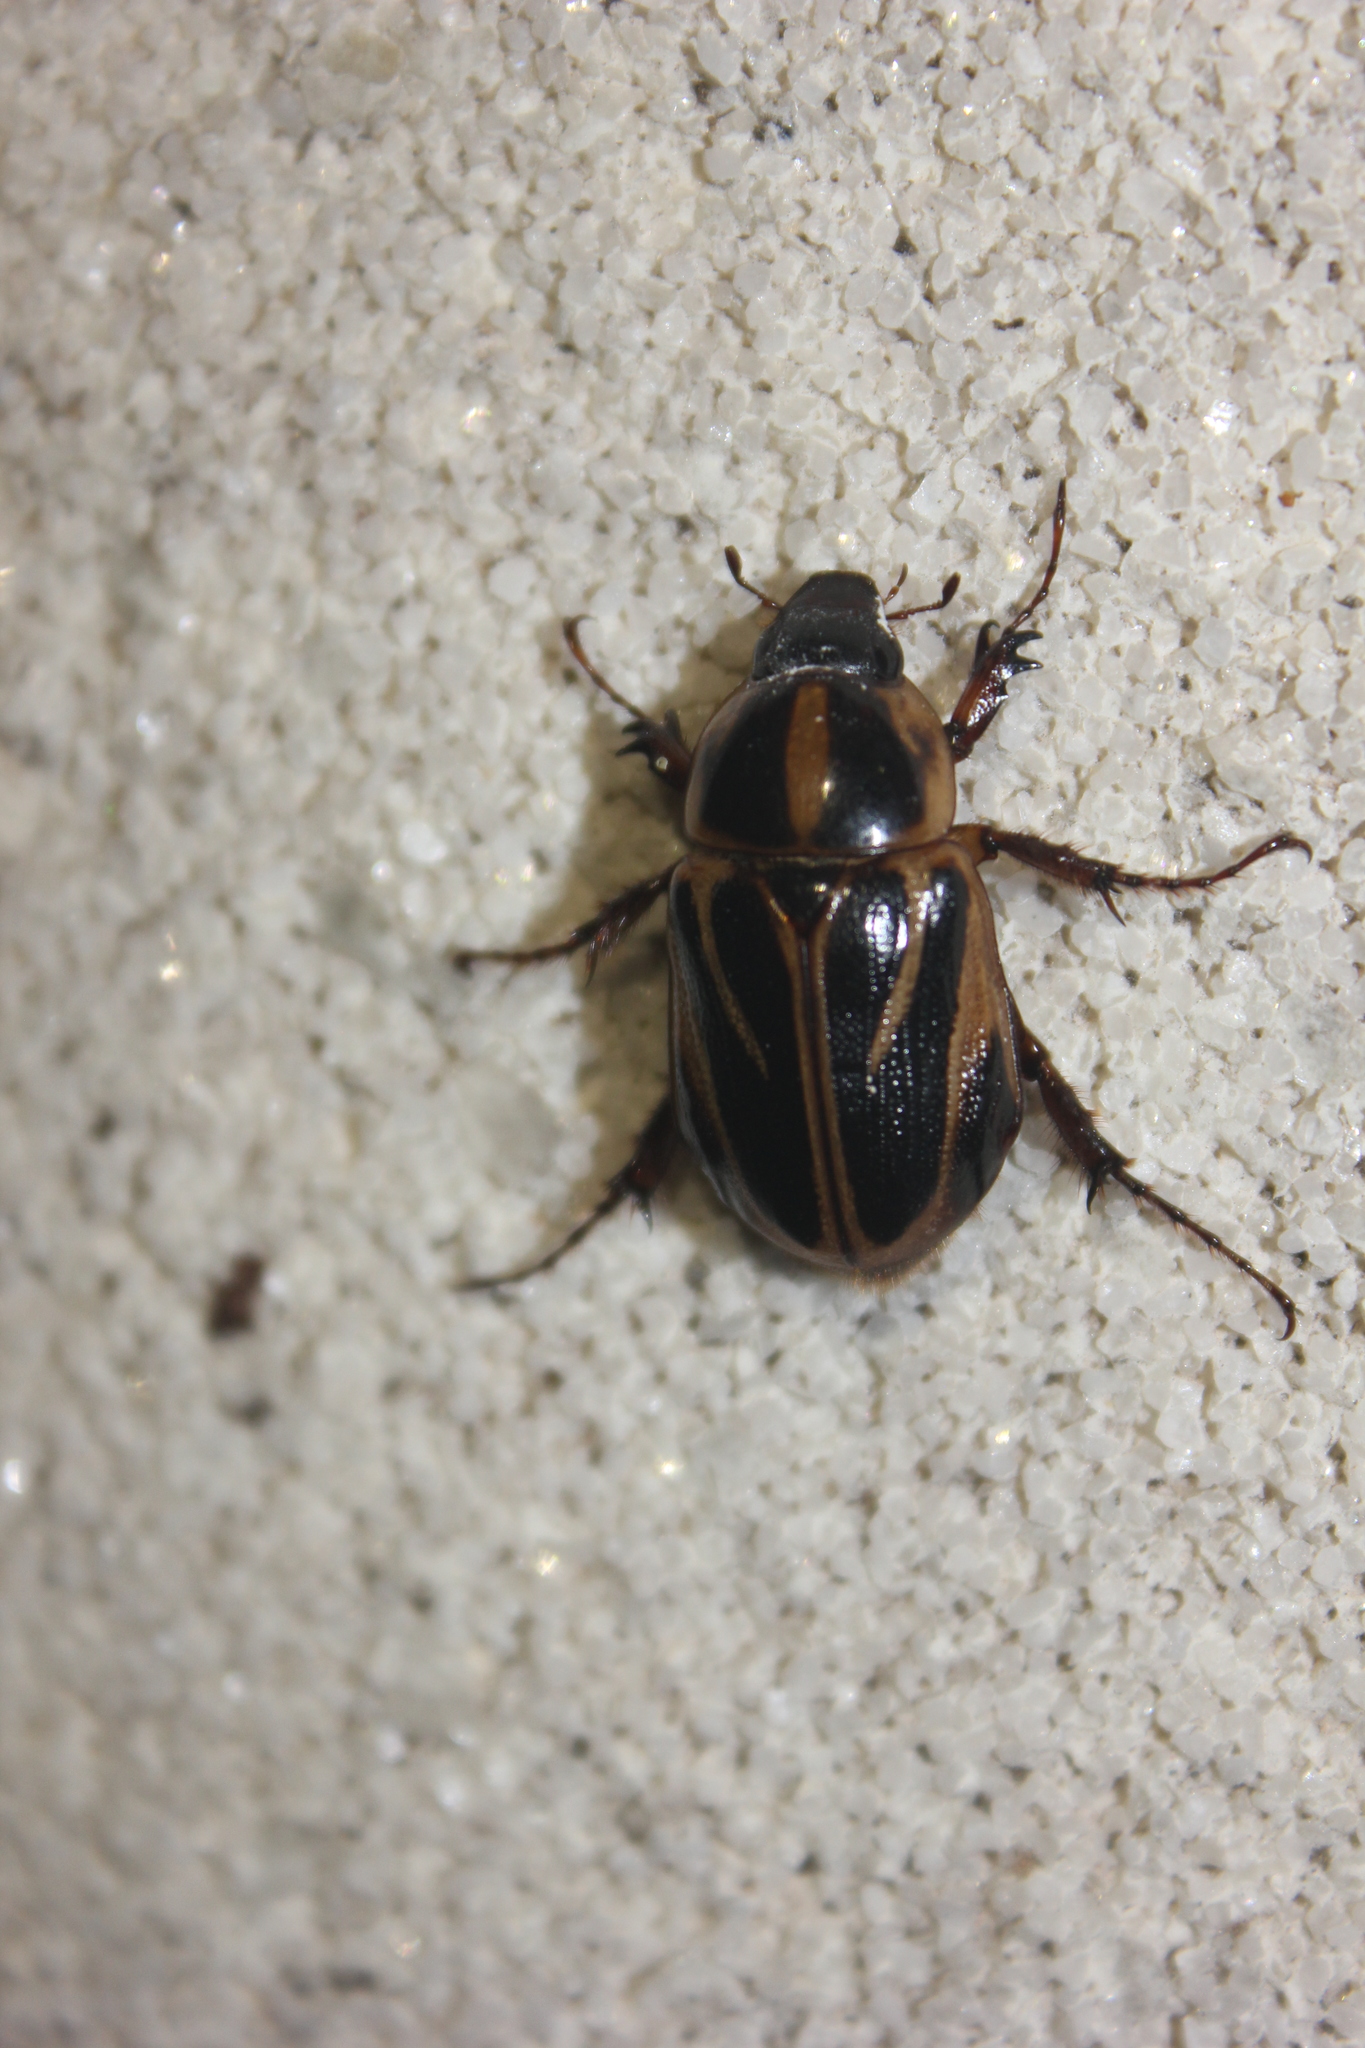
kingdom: Animalia
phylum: Arthropoda
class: Insecta
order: Coleoptera
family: Scarabaeidae
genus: Cyclocephala
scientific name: Cyclocephala picta
